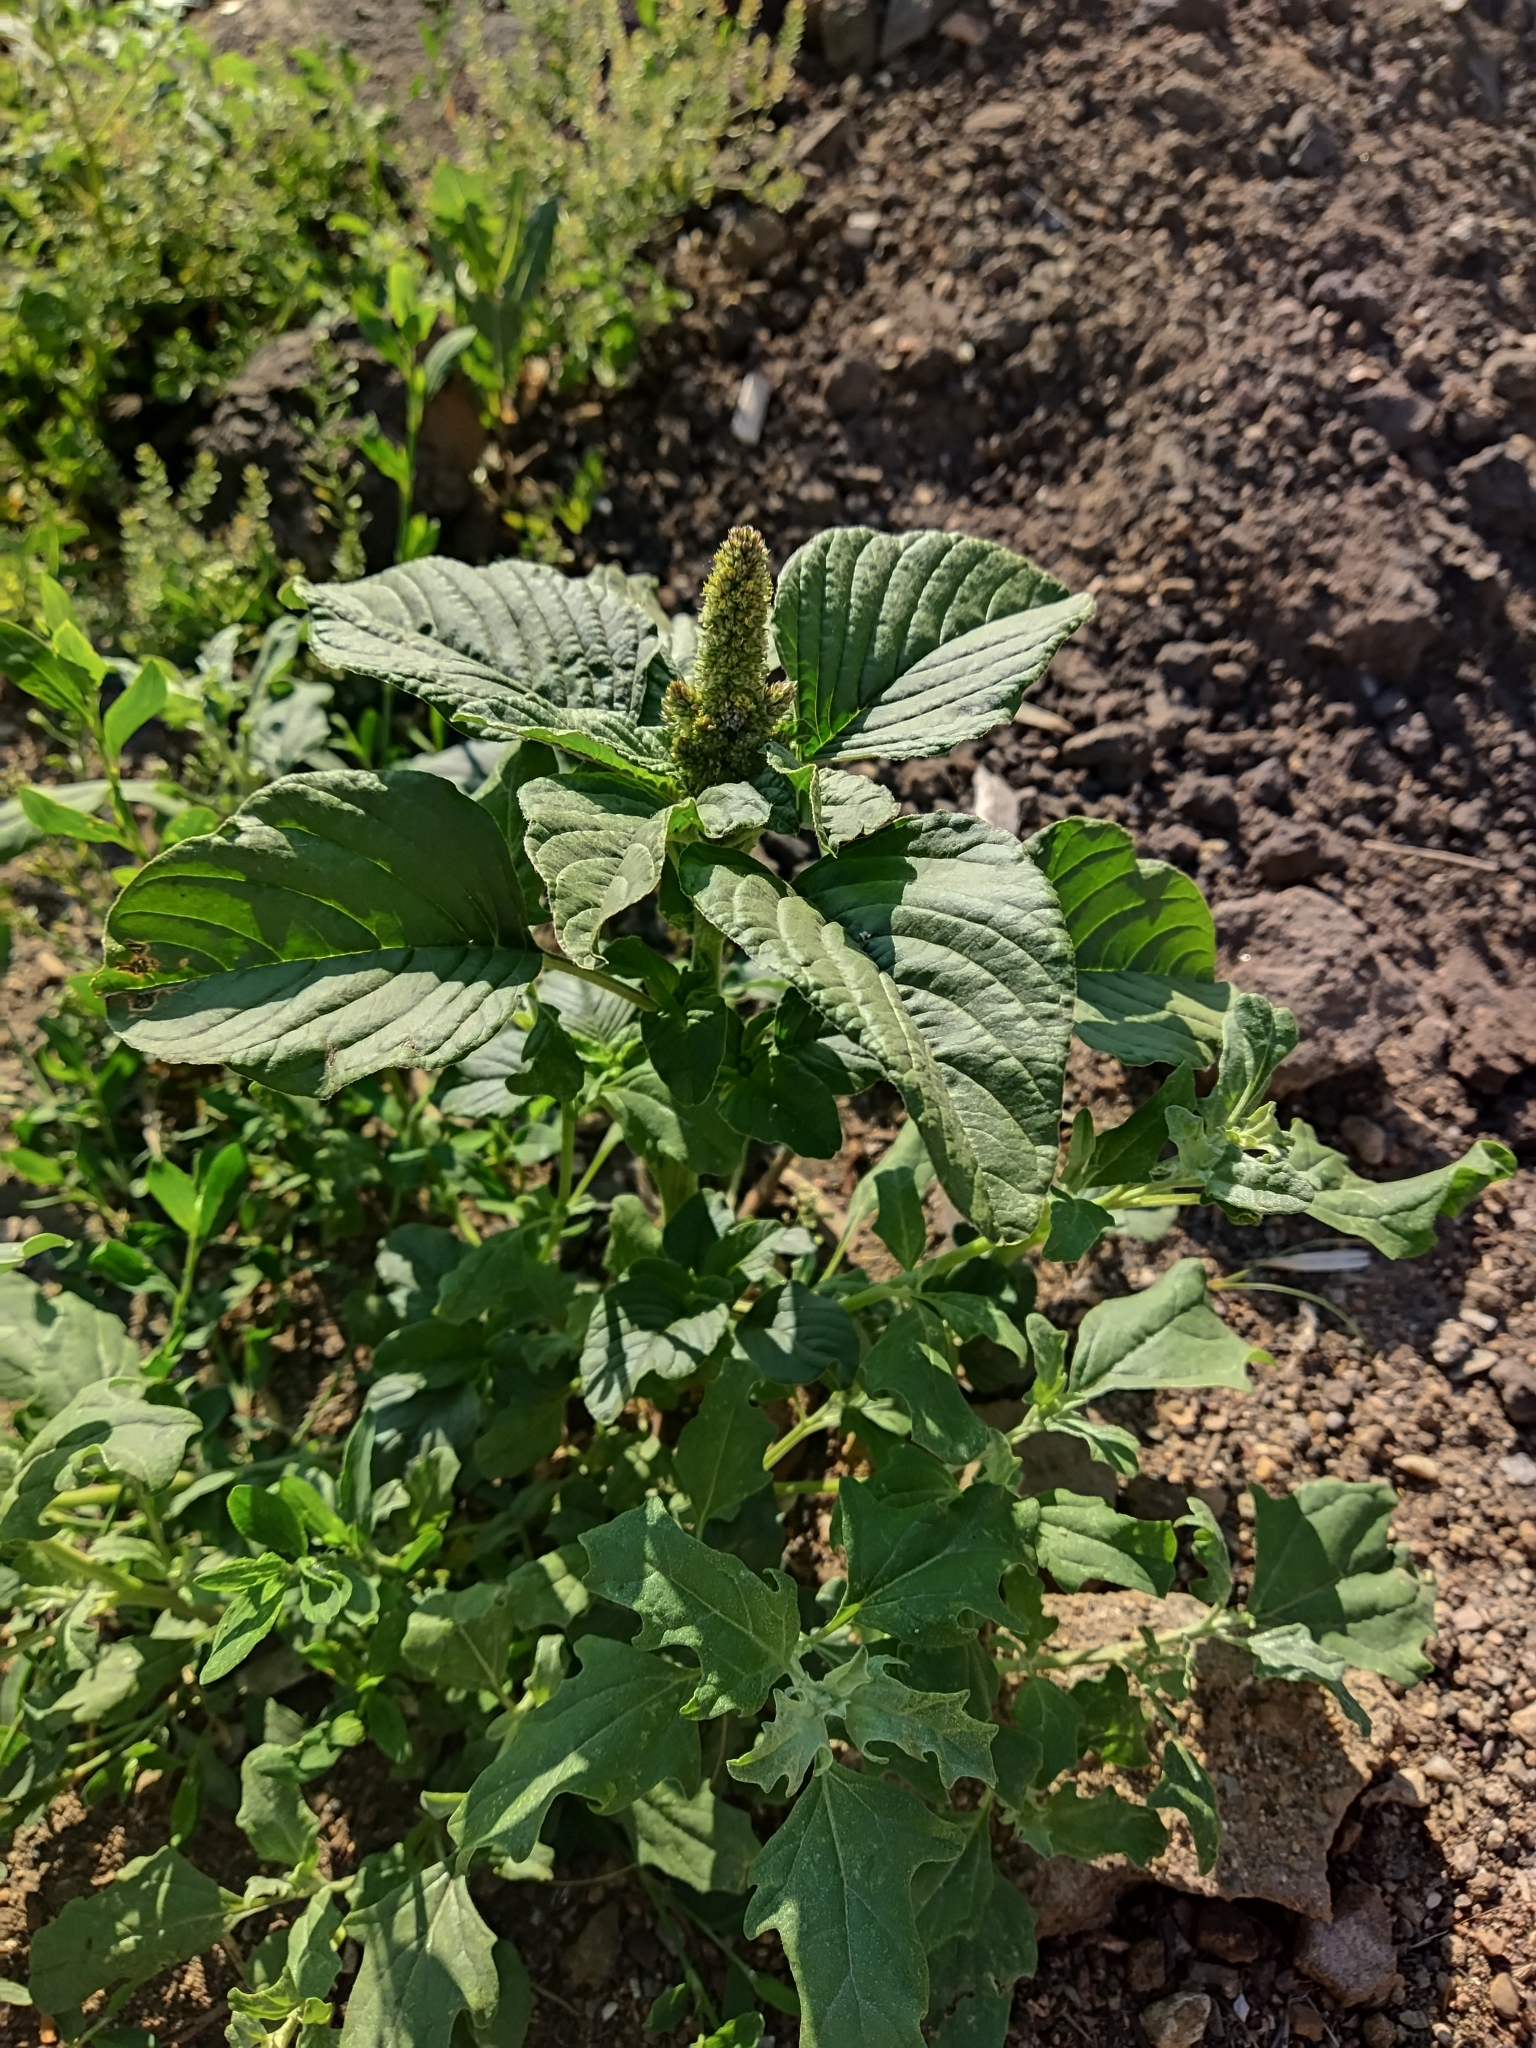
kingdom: Plantae
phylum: Tracheophyta
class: Magnoliopsida
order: Caryophyllales
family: Amaranthaceae
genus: Amaranthus
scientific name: Amaranthus retroflexus
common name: Redroot amaranth
